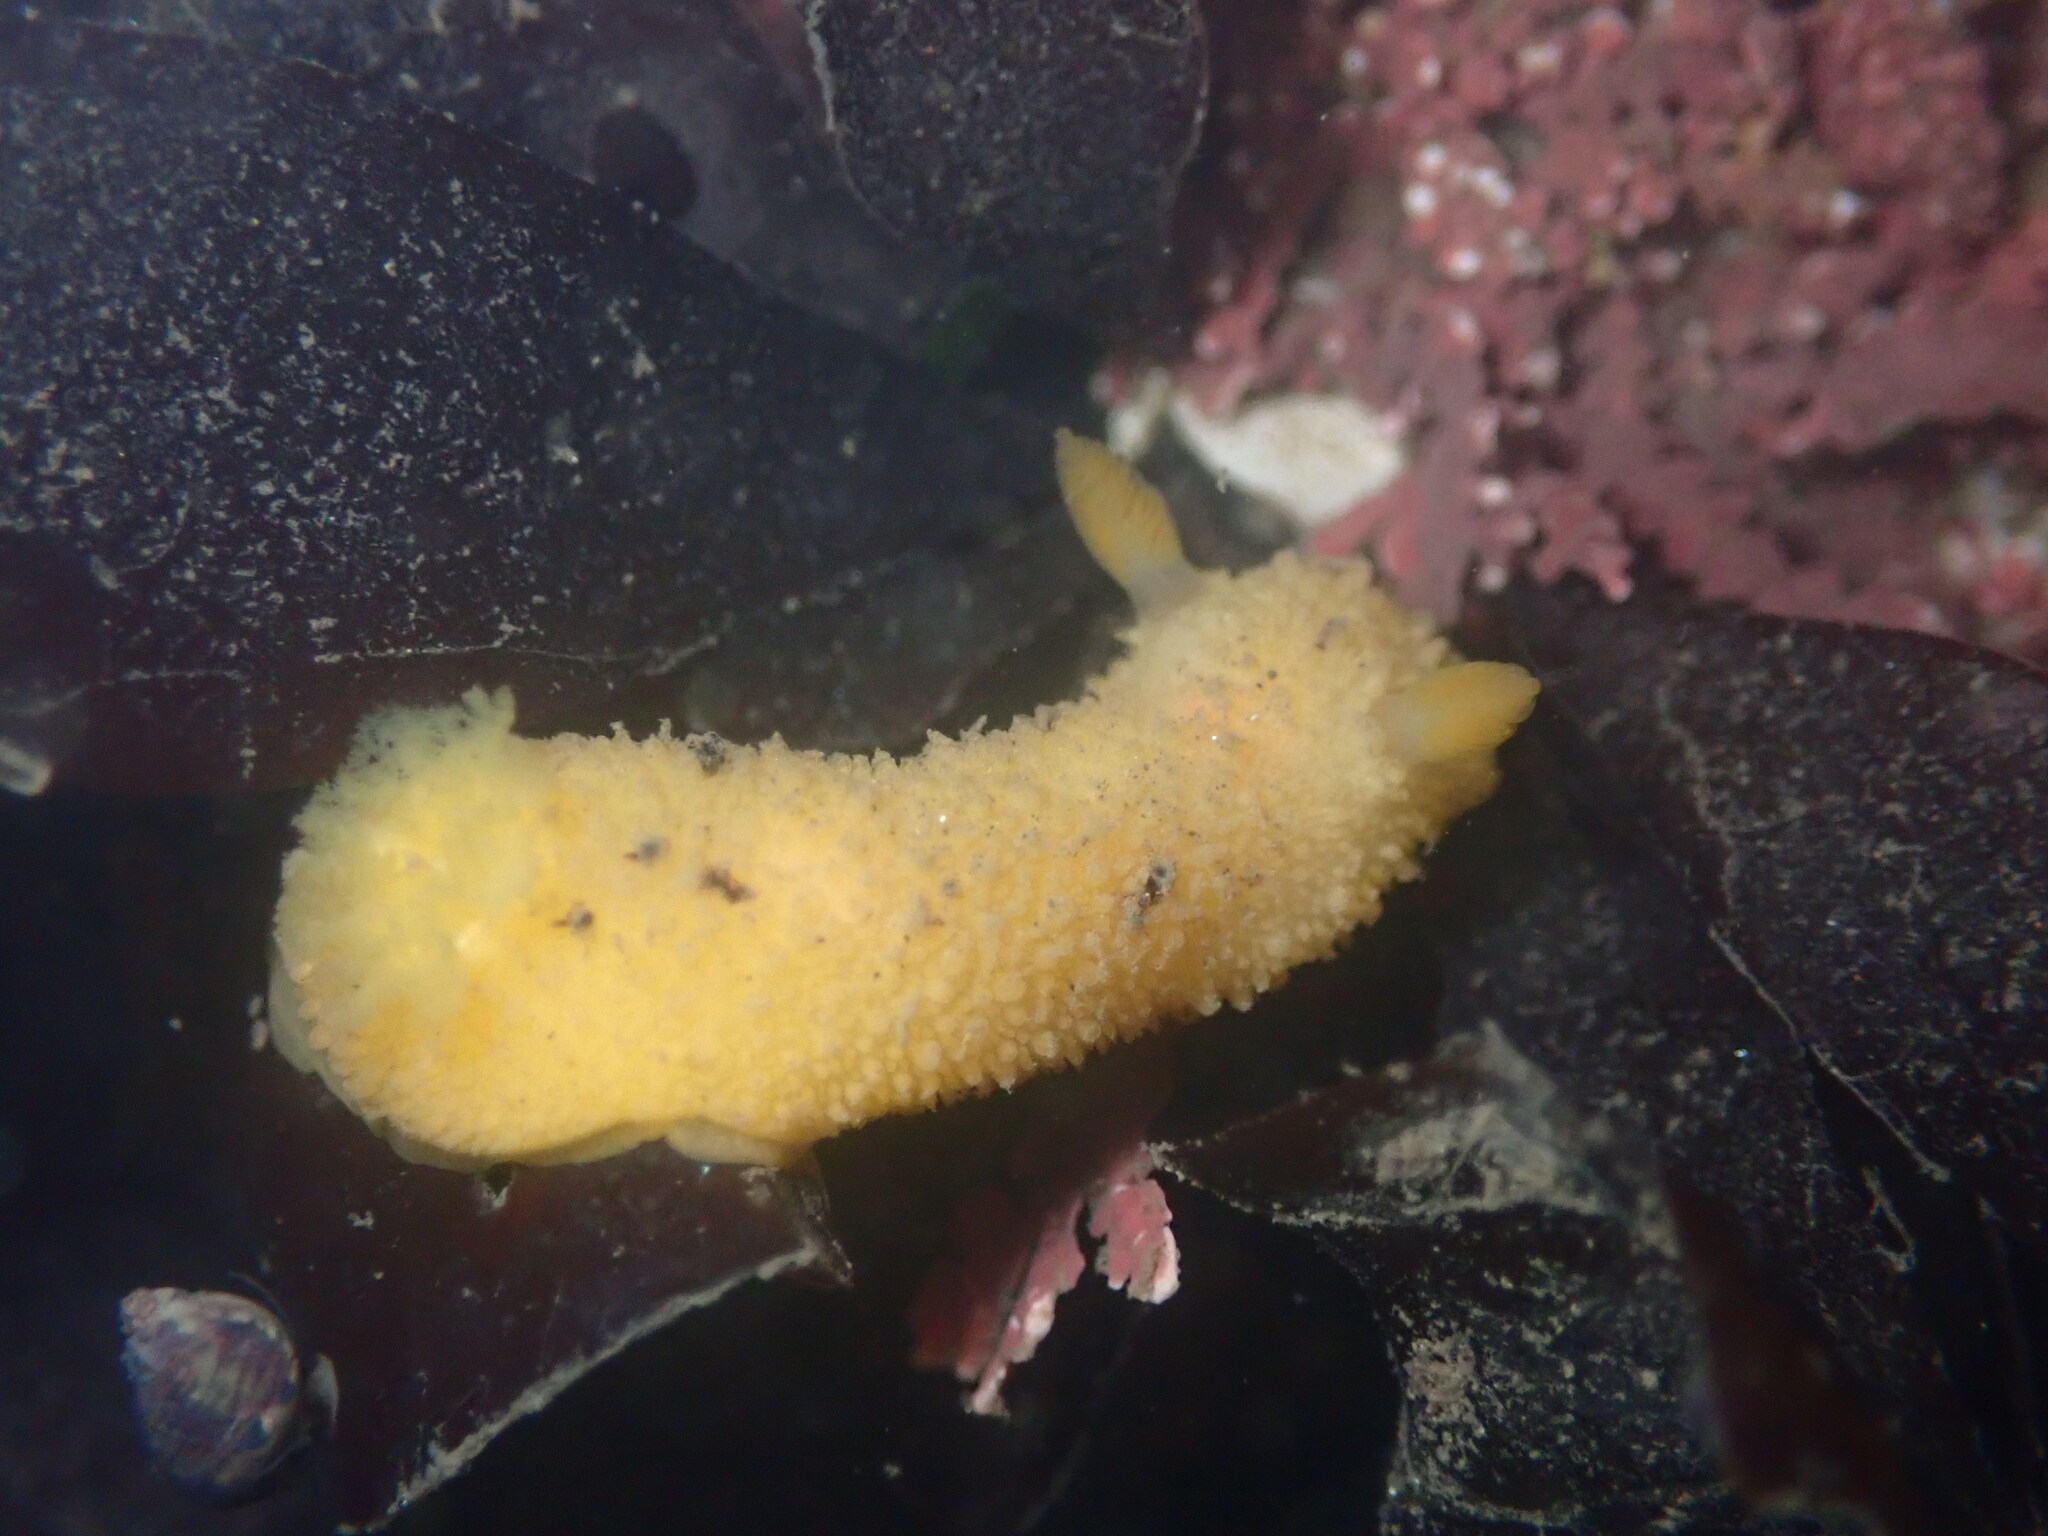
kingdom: Animalia
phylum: Mollusca
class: Gastropoda
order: Nudibranchia
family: Dorididae
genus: Doris
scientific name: Doris montereyensis
